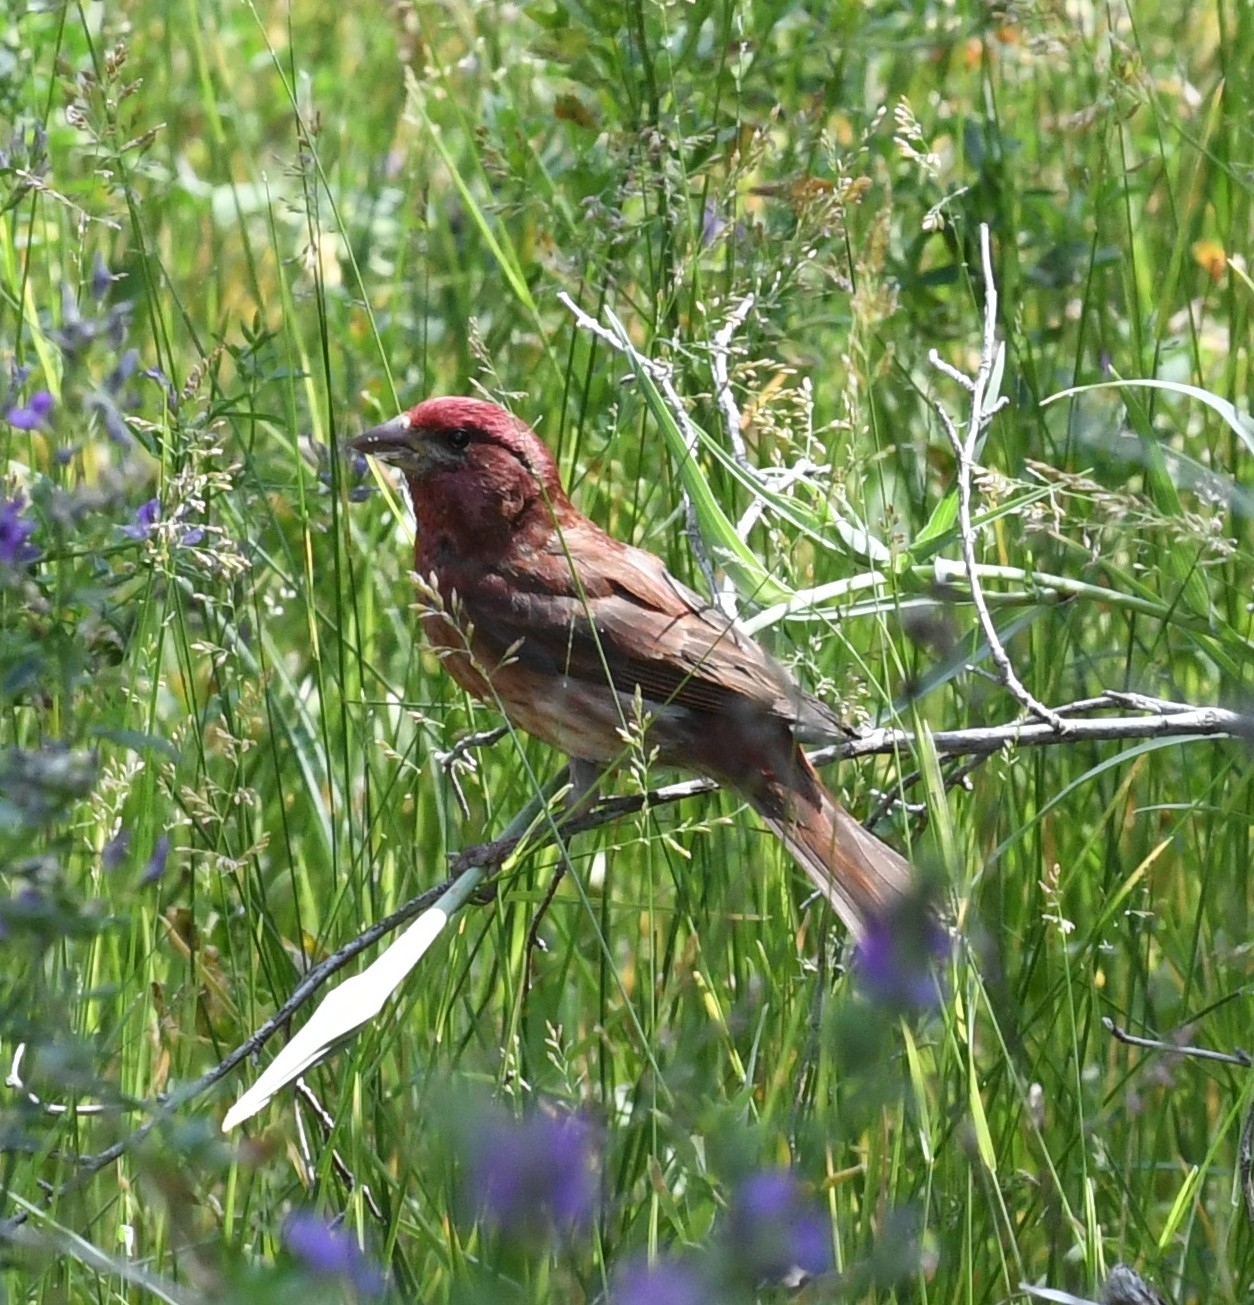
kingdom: Animalia
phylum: Chordata
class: Aves
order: Passeriformes
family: Fringillidae
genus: Haemorhous
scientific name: Haemorhous purpureus
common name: Purple finch
